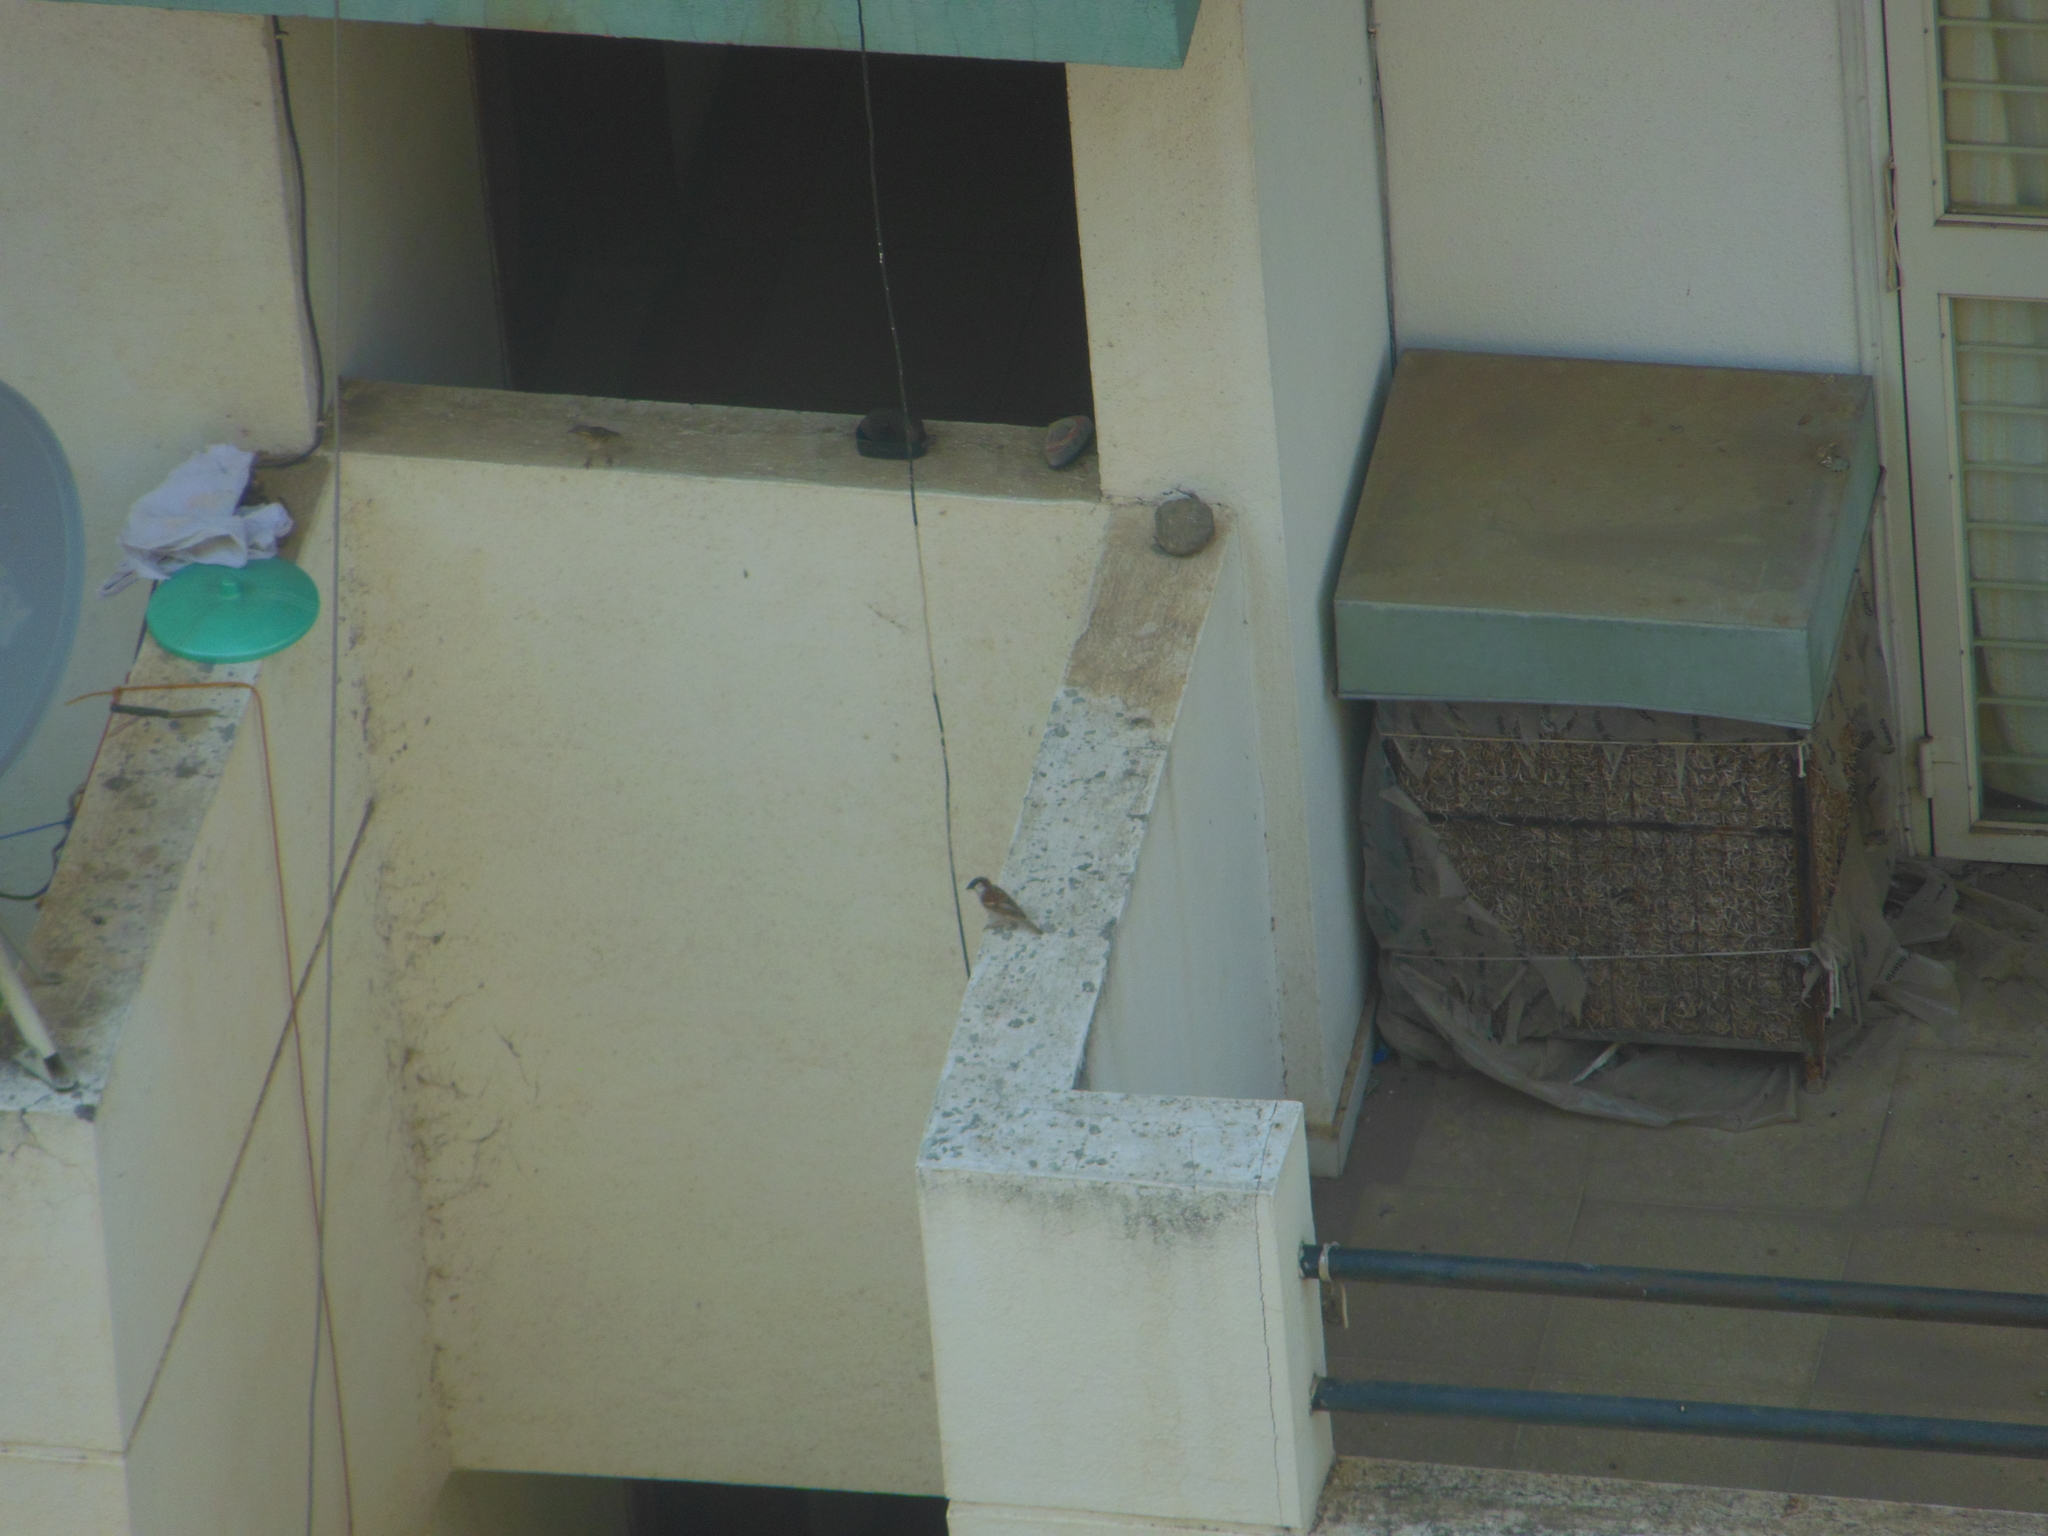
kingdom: Animalia
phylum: Chordata
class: Aves
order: Passeriformes
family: Passeridae
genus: Passer
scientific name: Passer domesticus
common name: House sparrow
